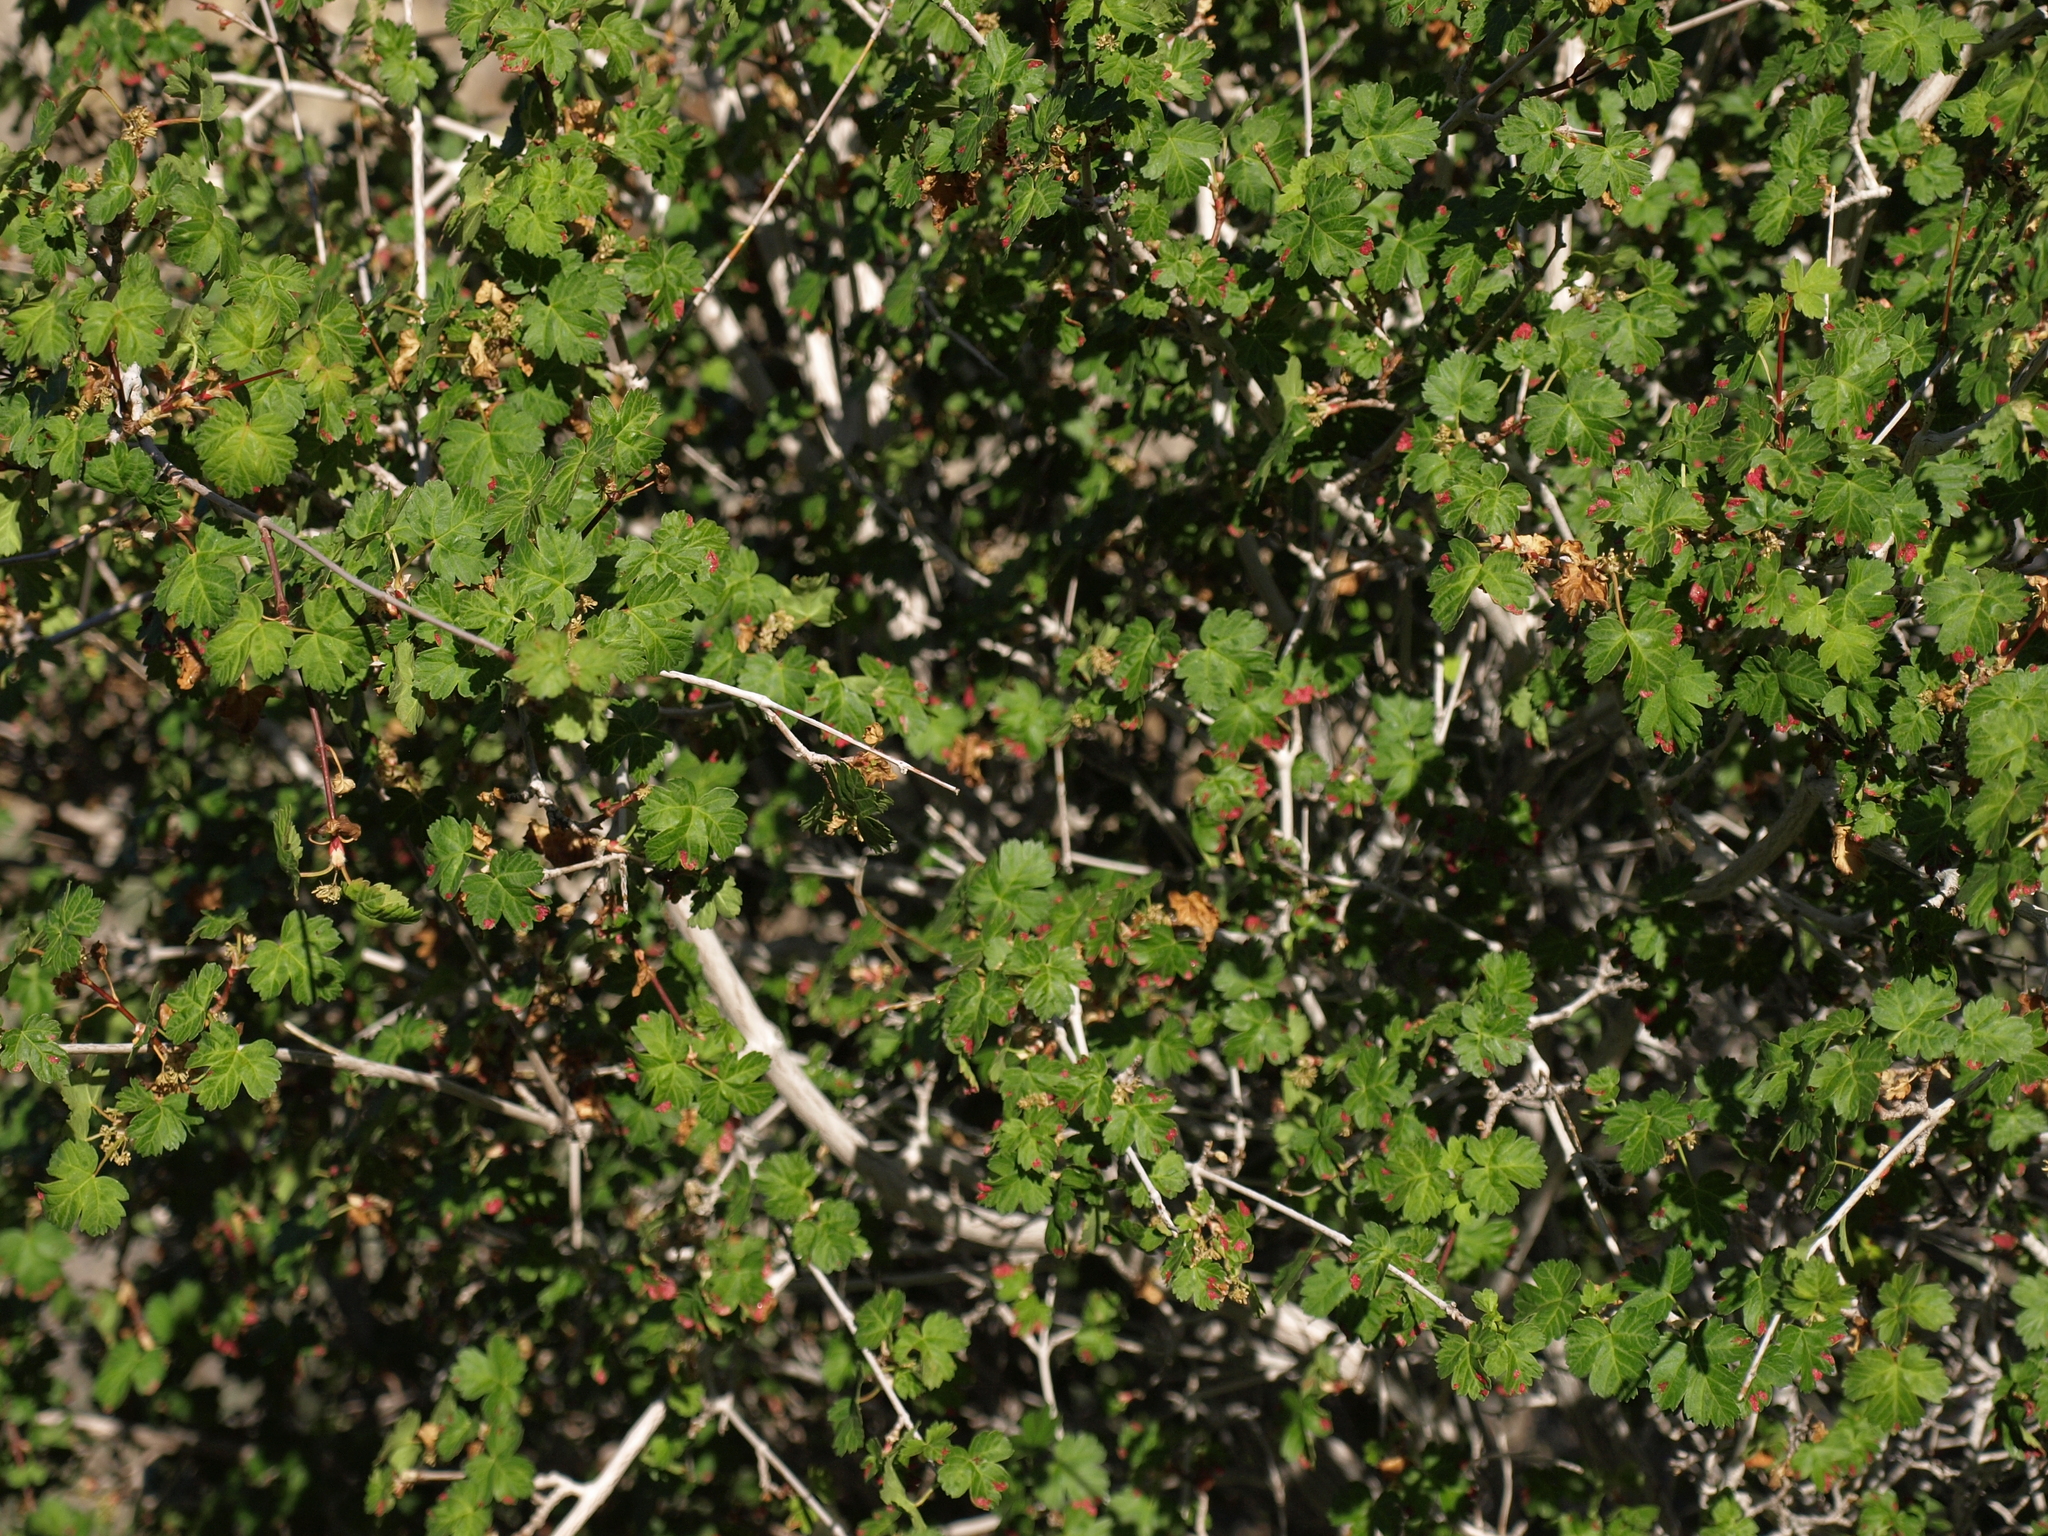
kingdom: Plantae
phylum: Tracheophyta
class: Magnoliopsida
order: Sapindales
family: Sapindaceae
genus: Acer
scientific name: Acer glabrum
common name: Rocky mountain maple
